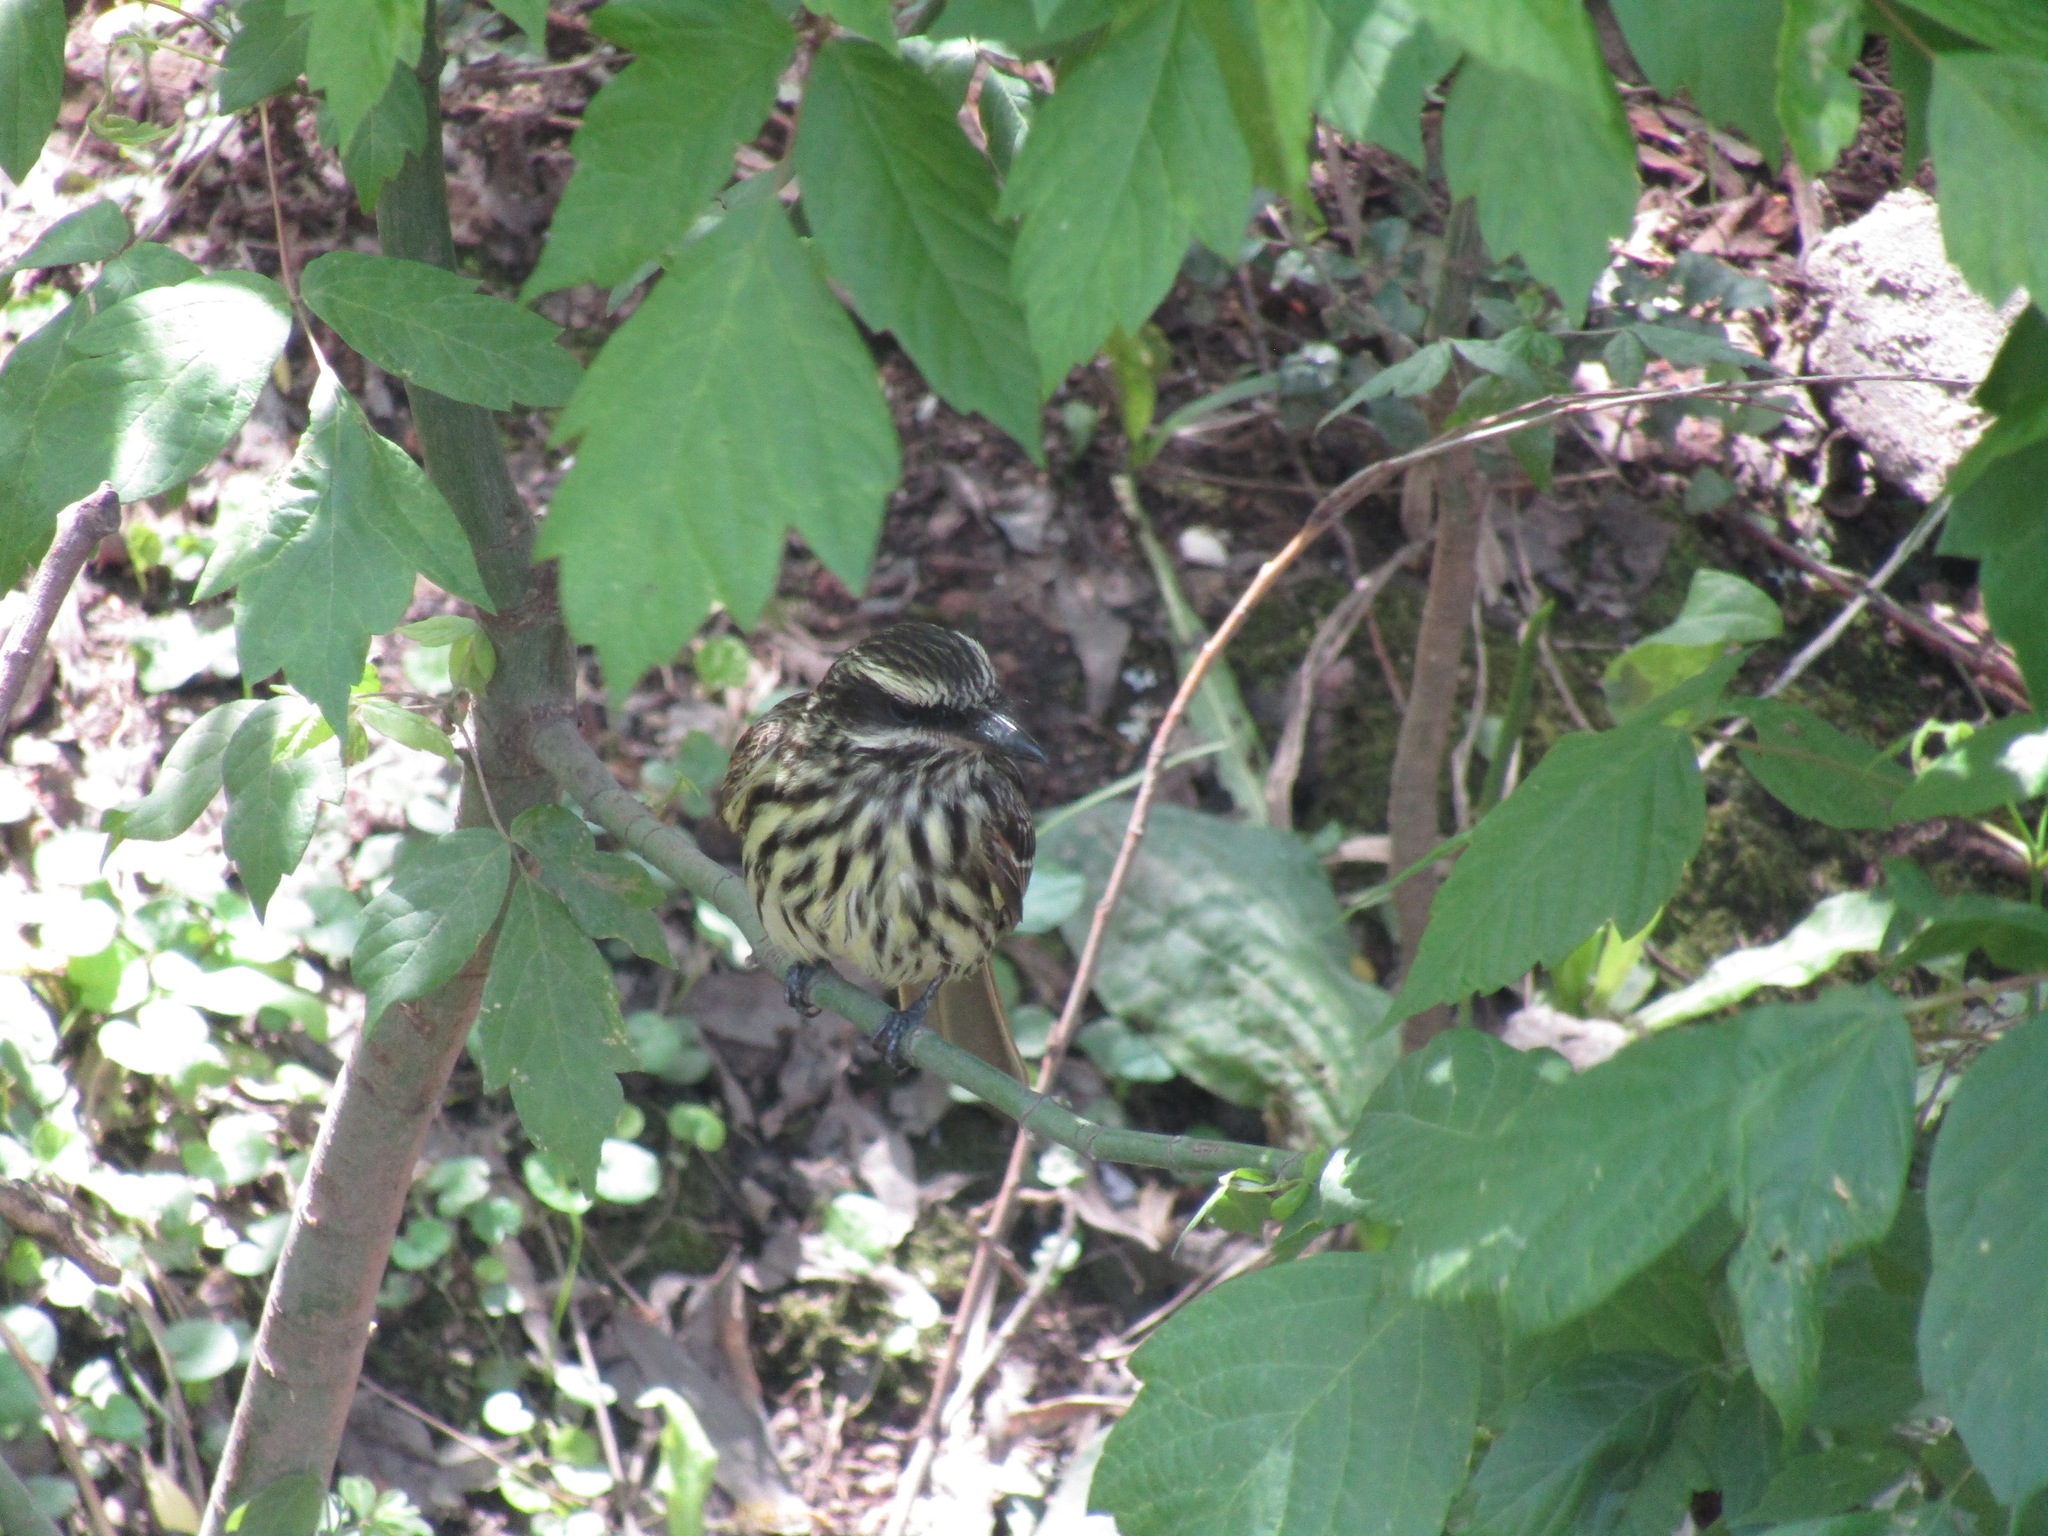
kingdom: Animalia
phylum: Chordata
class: Aves
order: Passeriformes
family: Tyrannidae
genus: Myiodynastes
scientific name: Myiodynastes maculatus
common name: Streaked flycatcher
